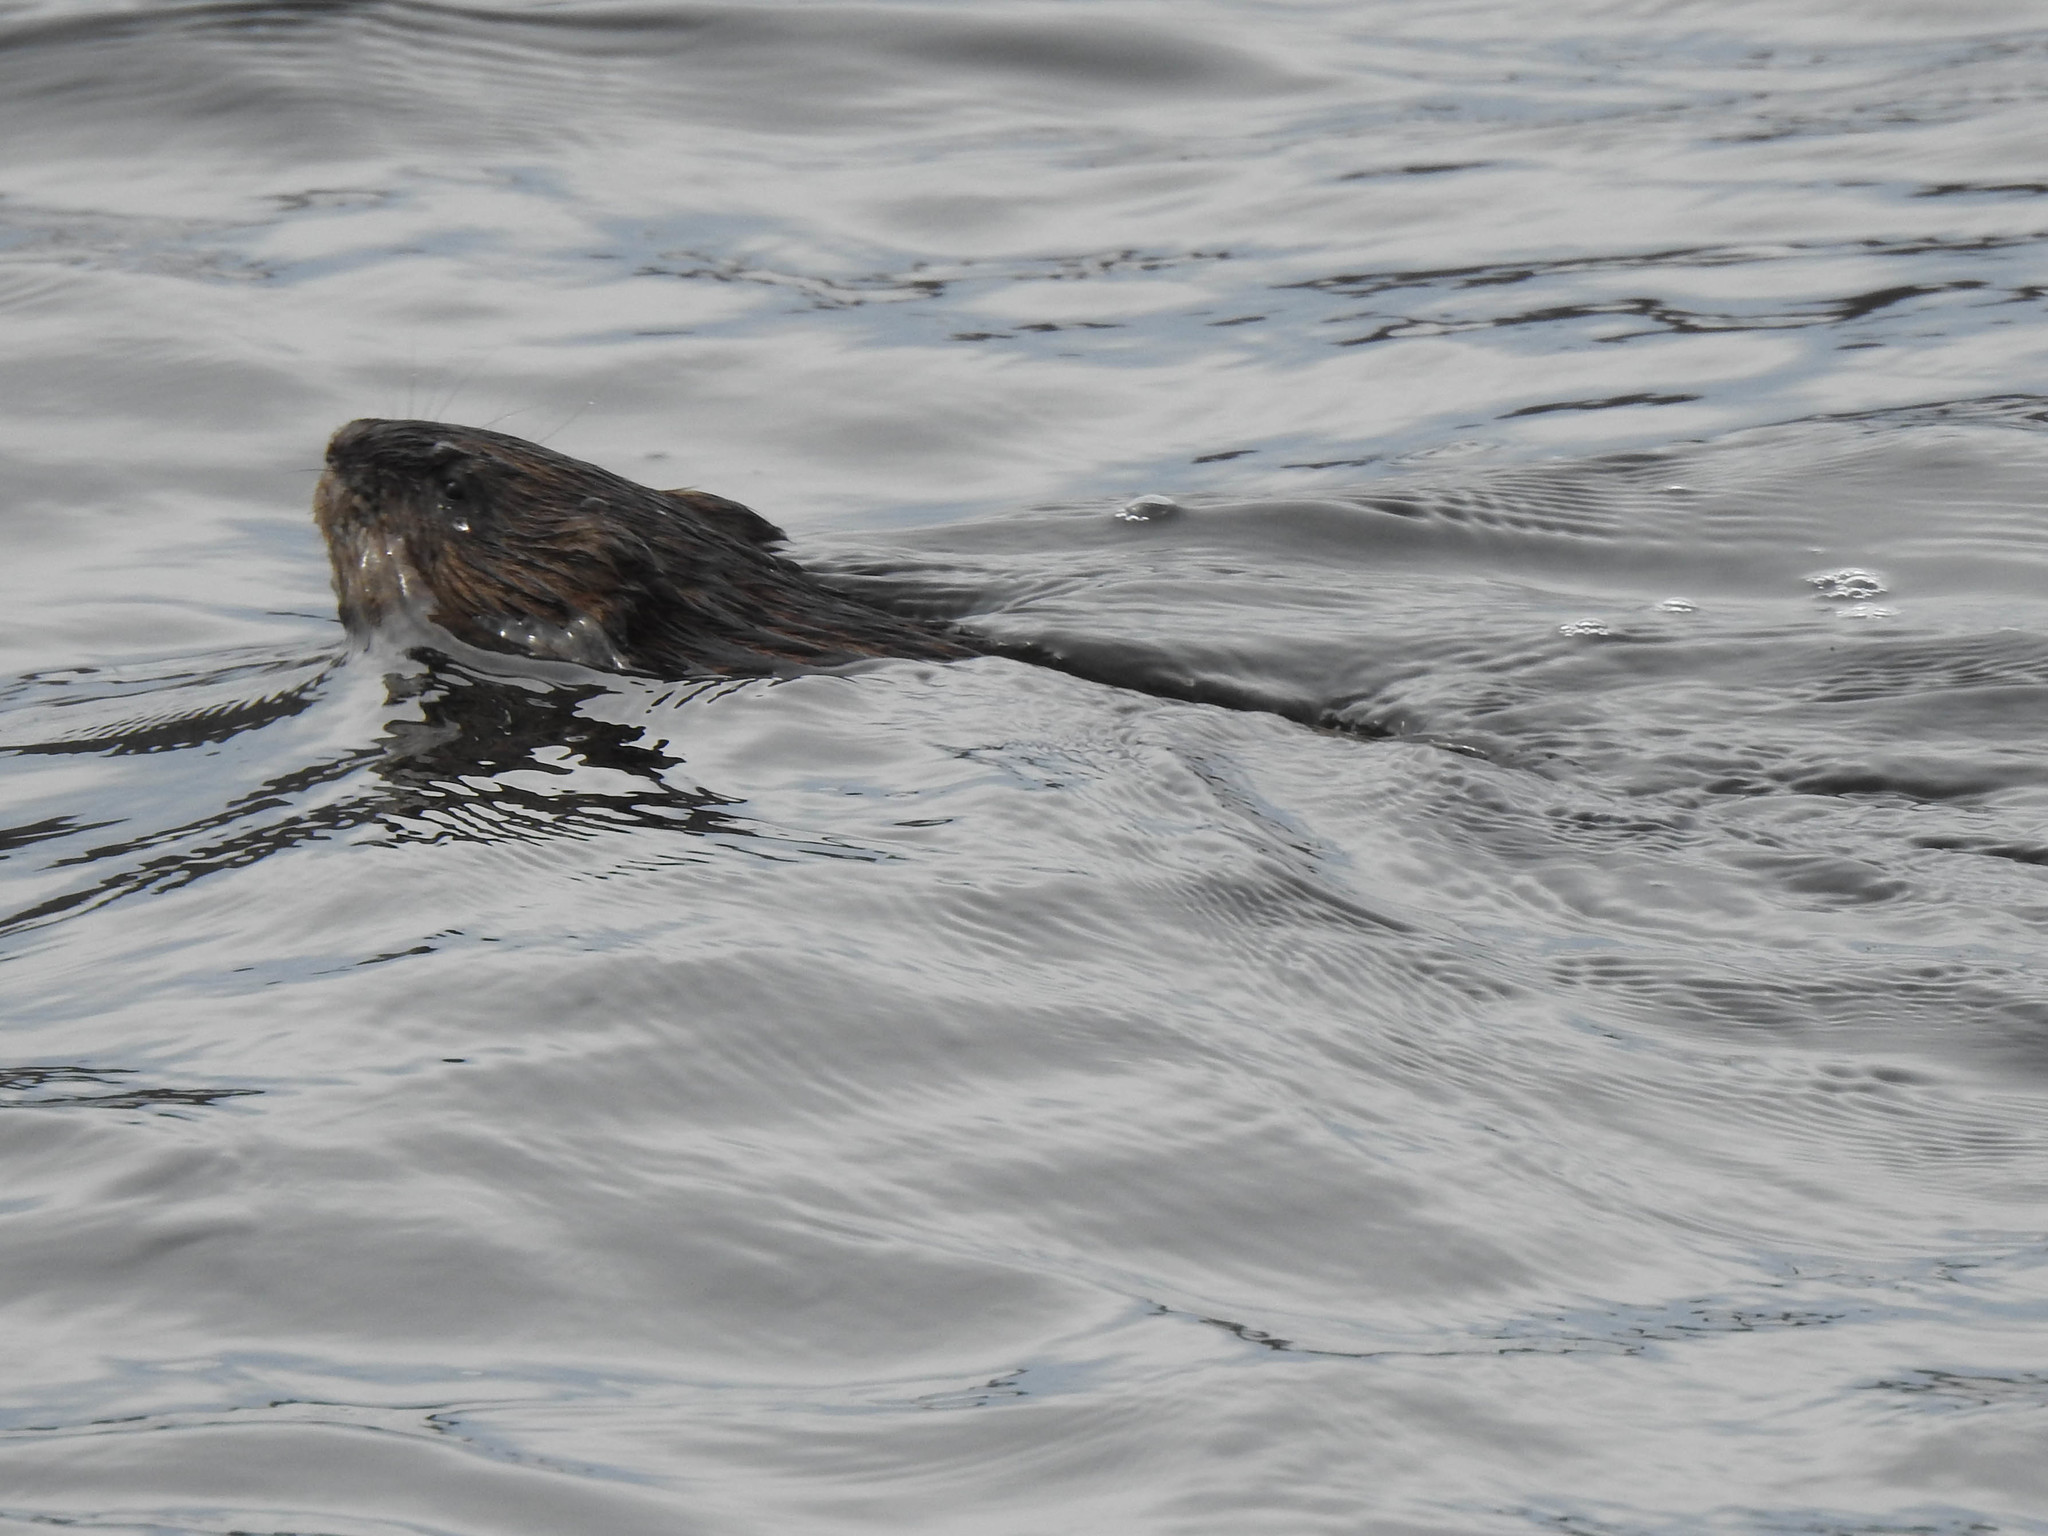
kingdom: Animalia
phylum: Chordata
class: Mammalia
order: Rodentia
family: Cricetidae
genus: Ondatra
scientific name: Ondatra zibethicus
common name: Muskrat
